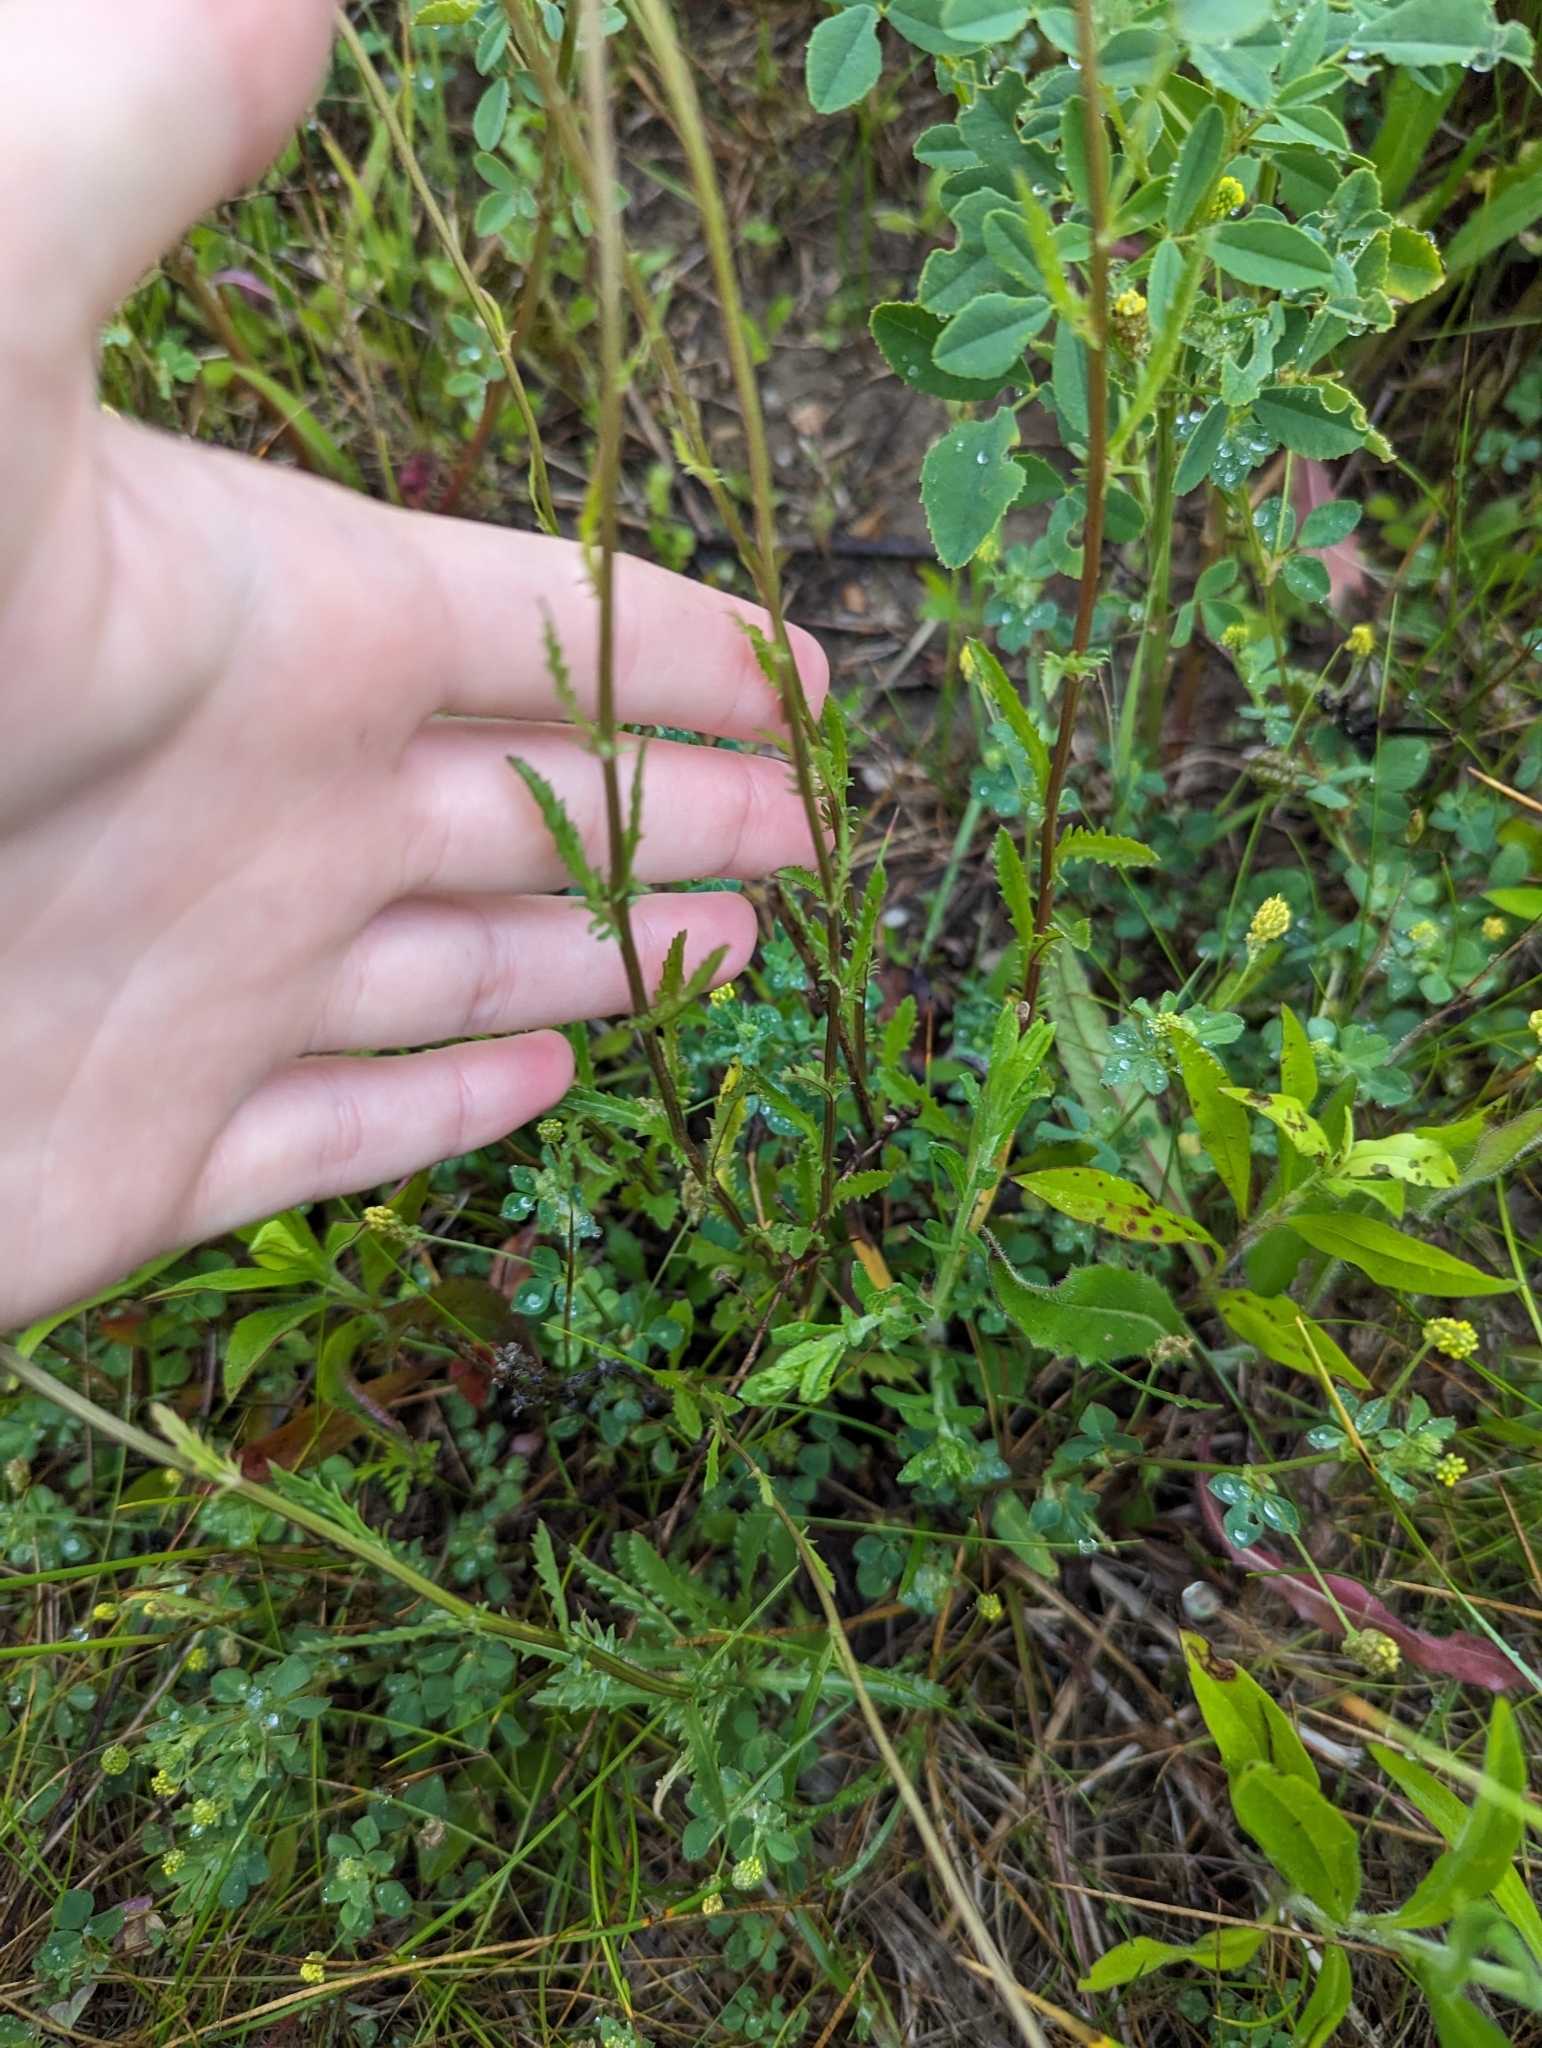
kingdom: Plantae
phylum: Tracheophyta
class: Magnoliopsida
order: Asterales
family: Asteraceae
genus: Leucanthemum
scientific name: Leucanthemum vulgare
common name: Oxeye daisy
